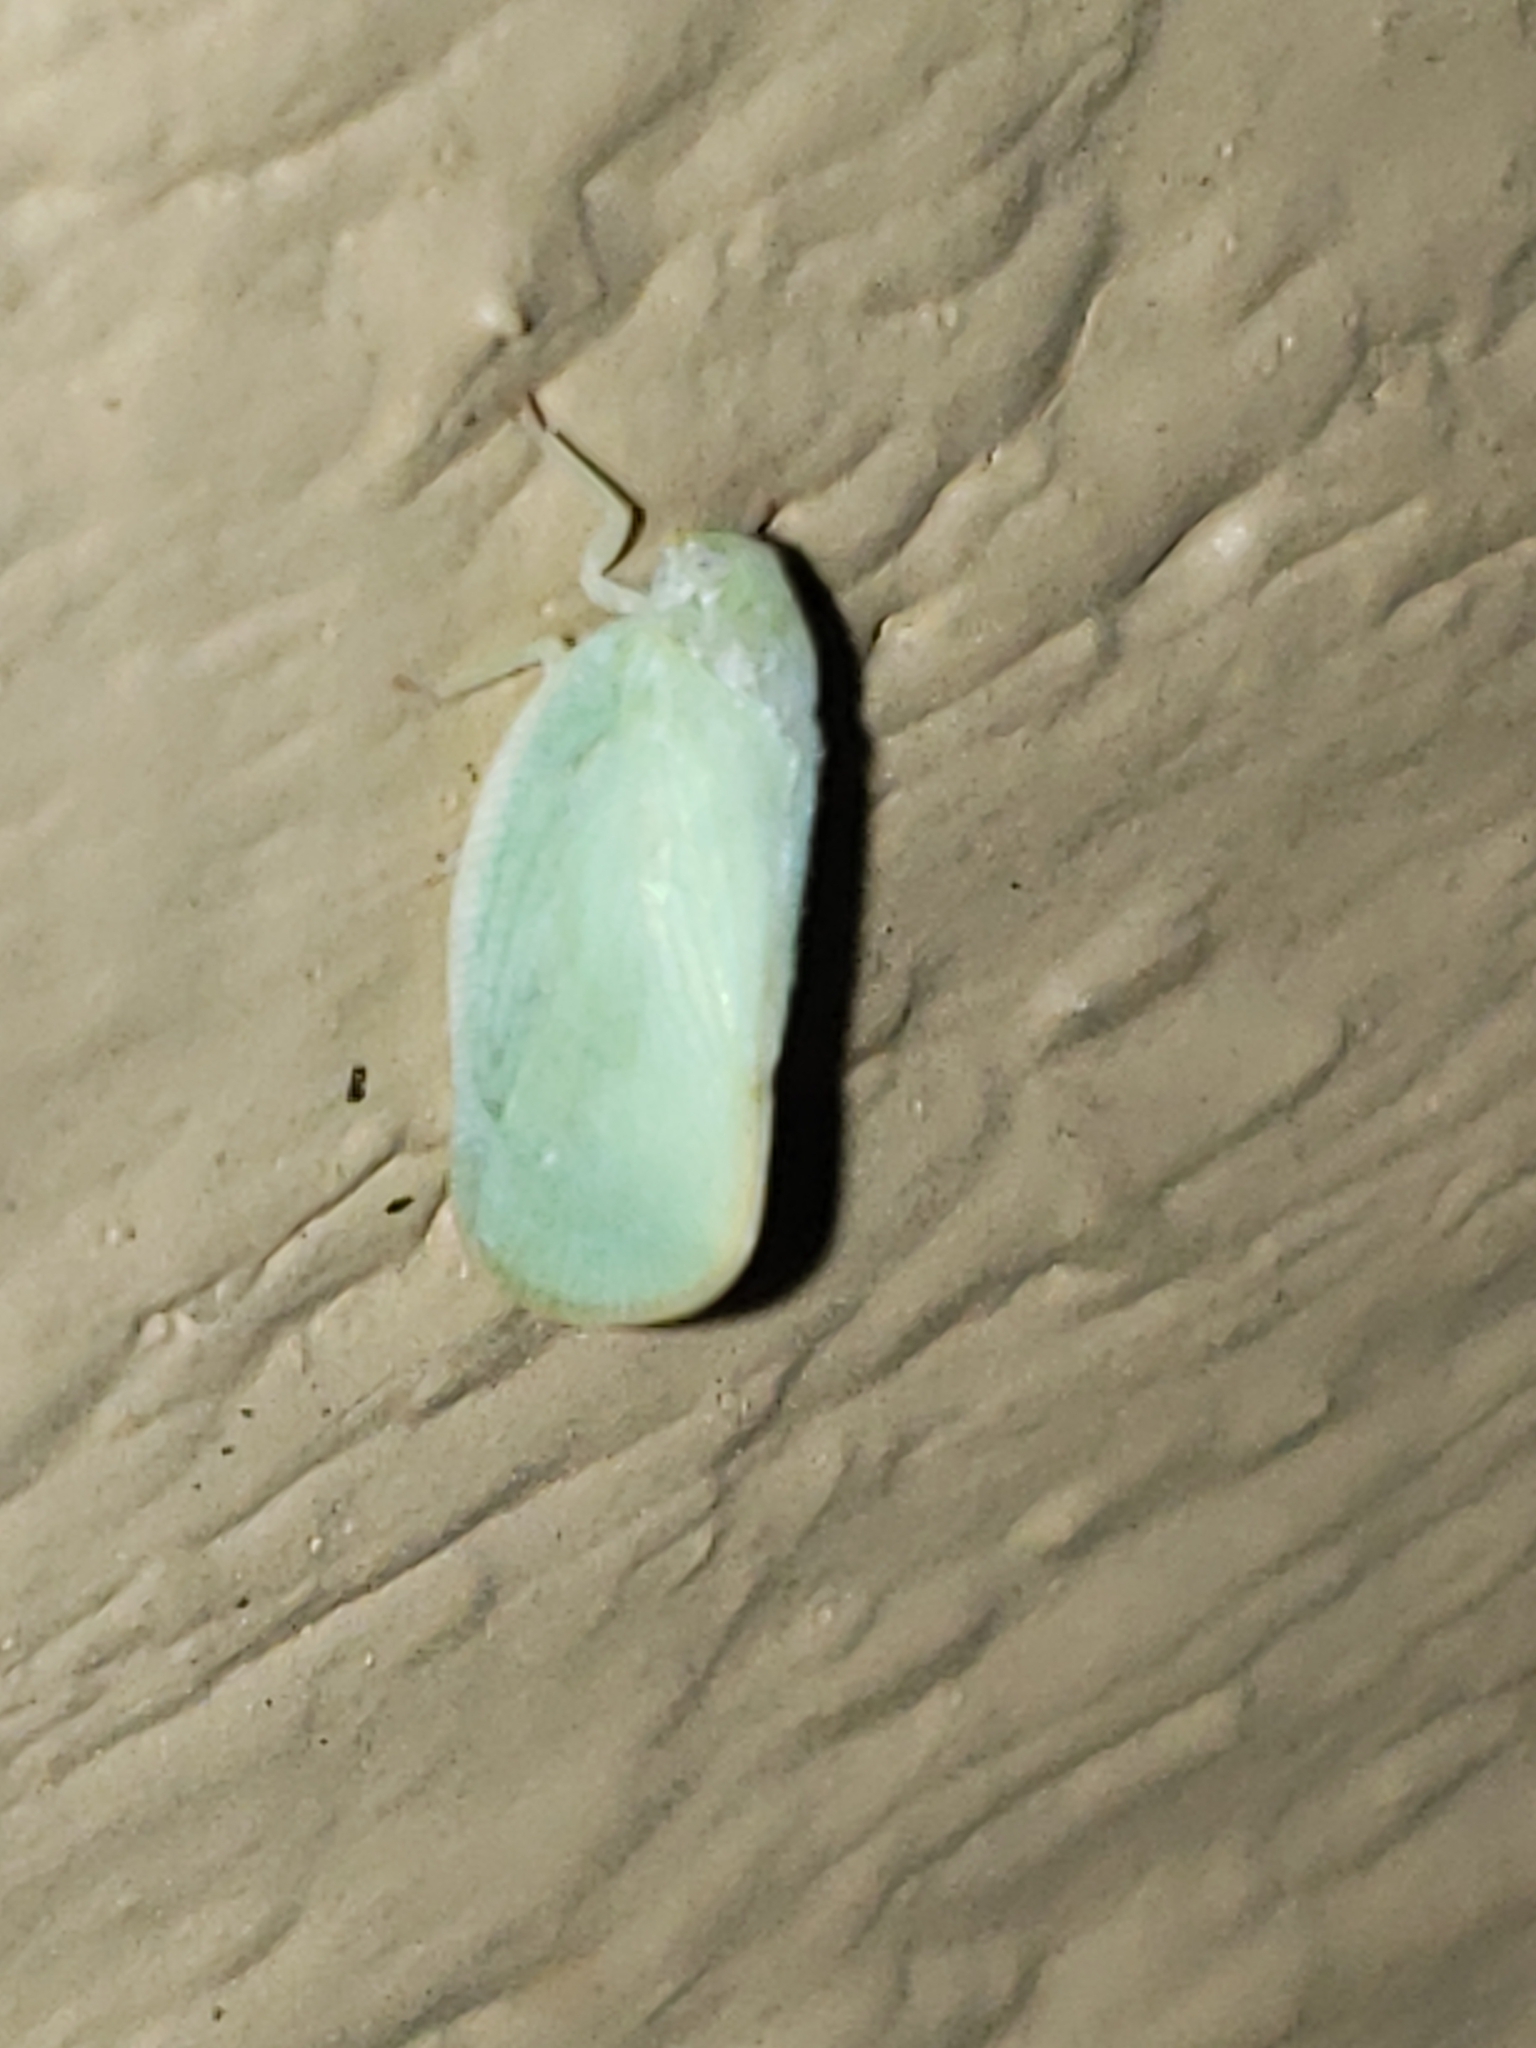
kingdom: Animalia
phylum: Arthropoda
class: Insecta
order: Hemiptera
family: Flatidae
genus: Ormenoides
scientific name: Ormenoides venusta
